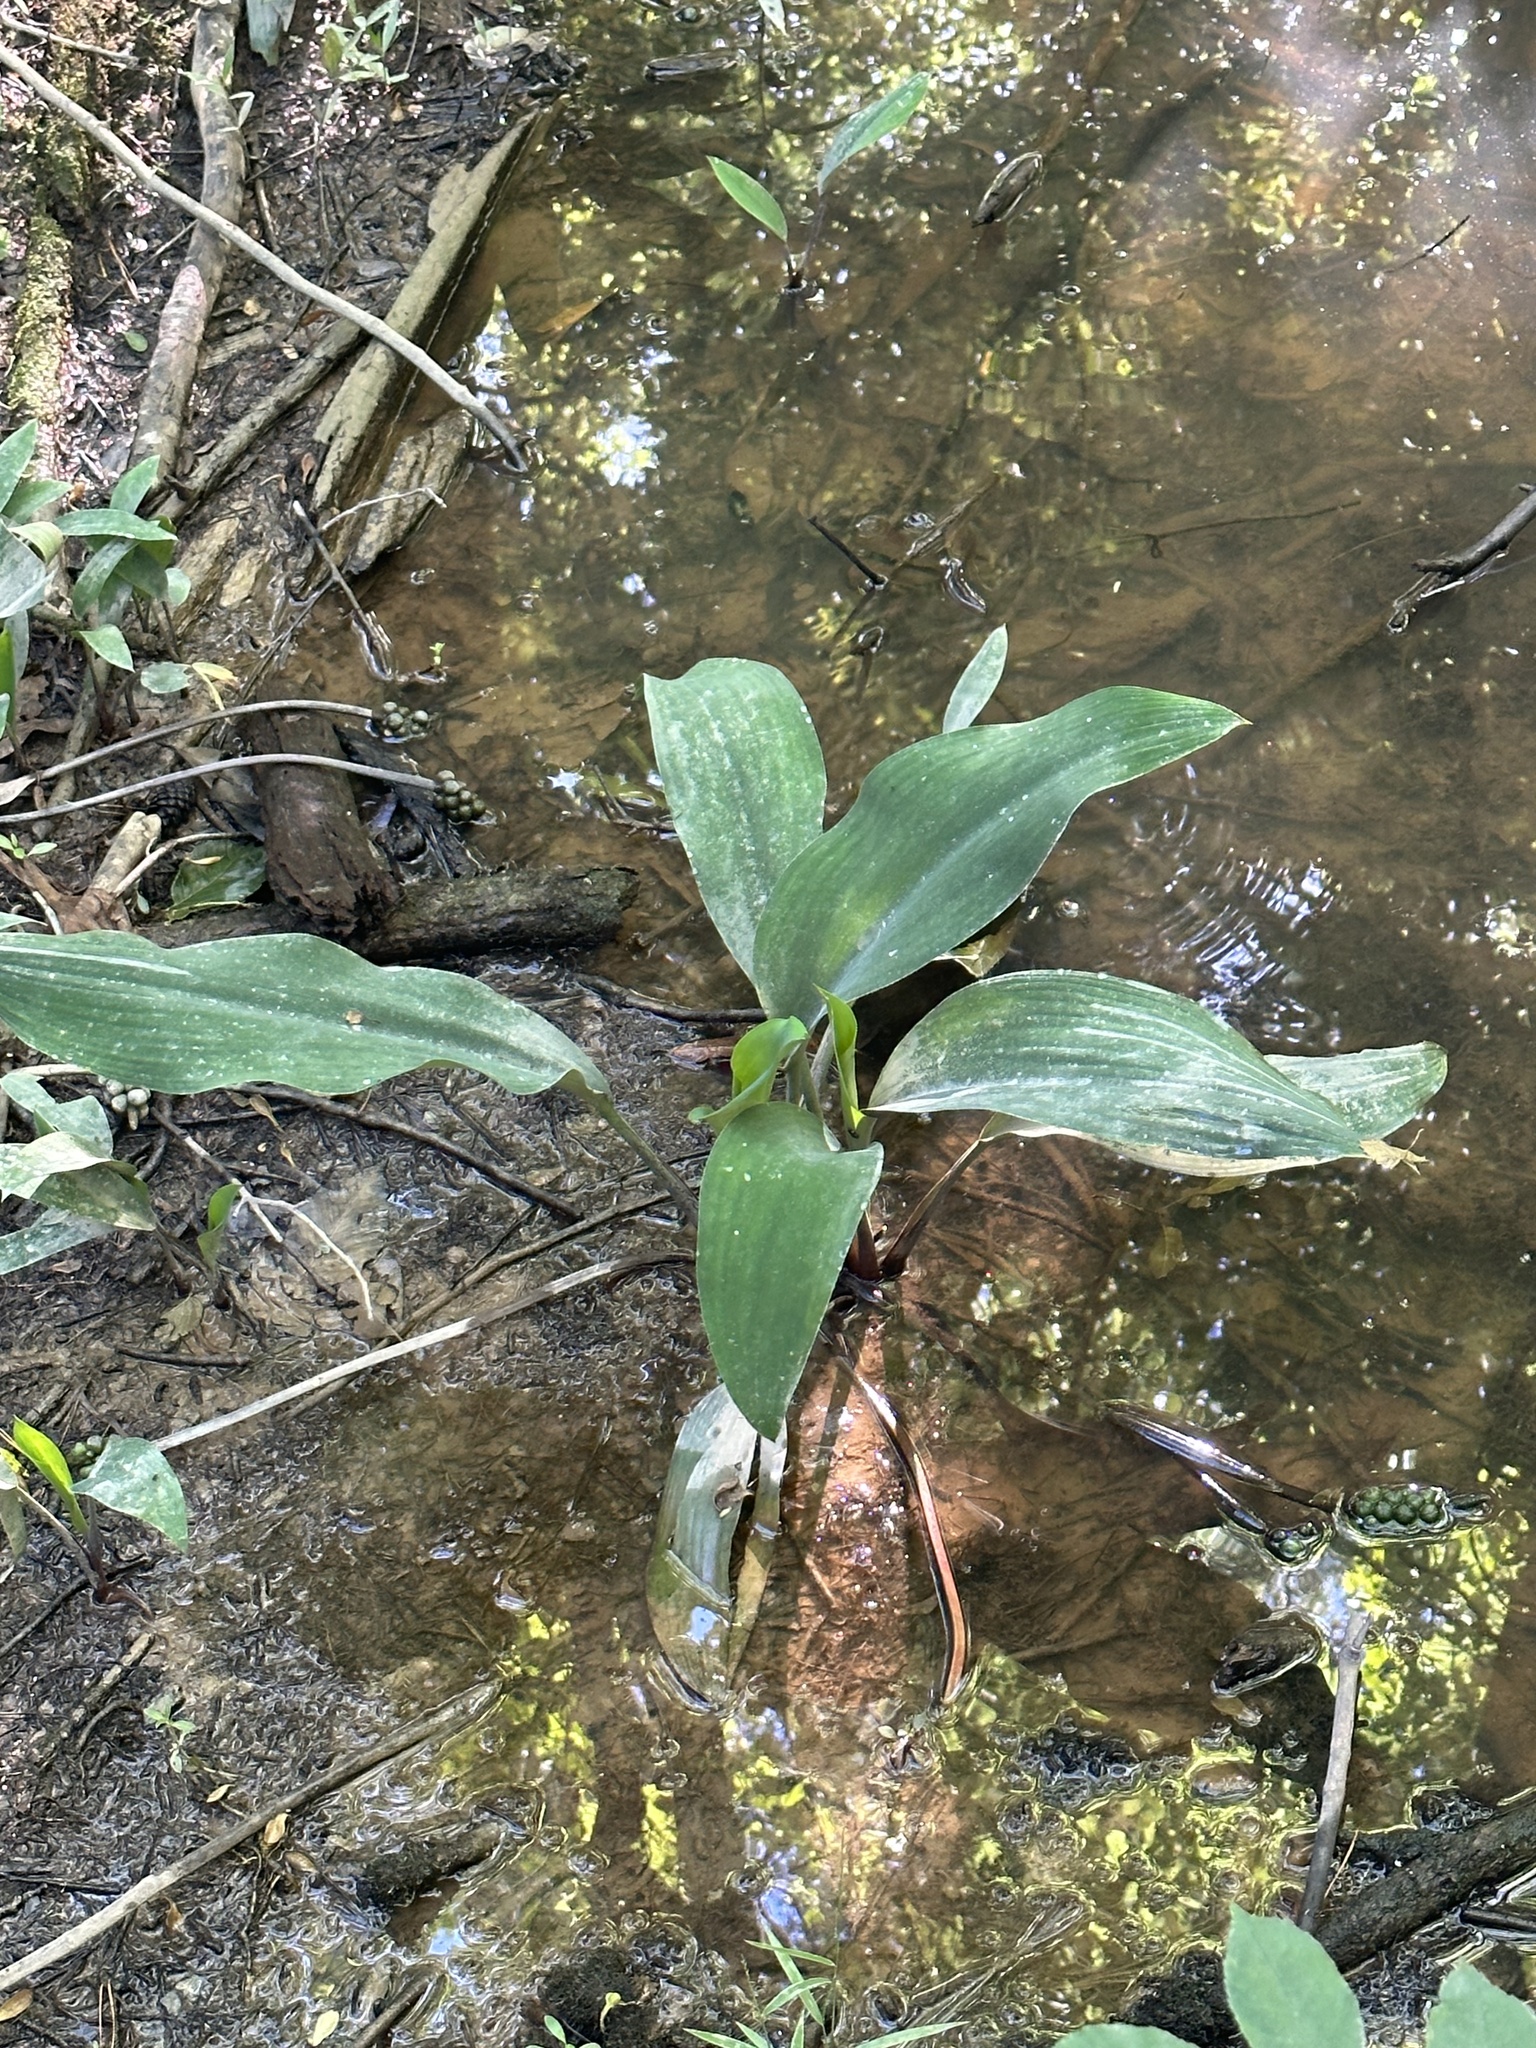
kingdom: Plantae
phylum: Tracheophyta
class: Liliopsida
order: Alismatales
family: Araceae
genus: Orontium
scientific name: Orontium aquaticum
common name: Golden-club
